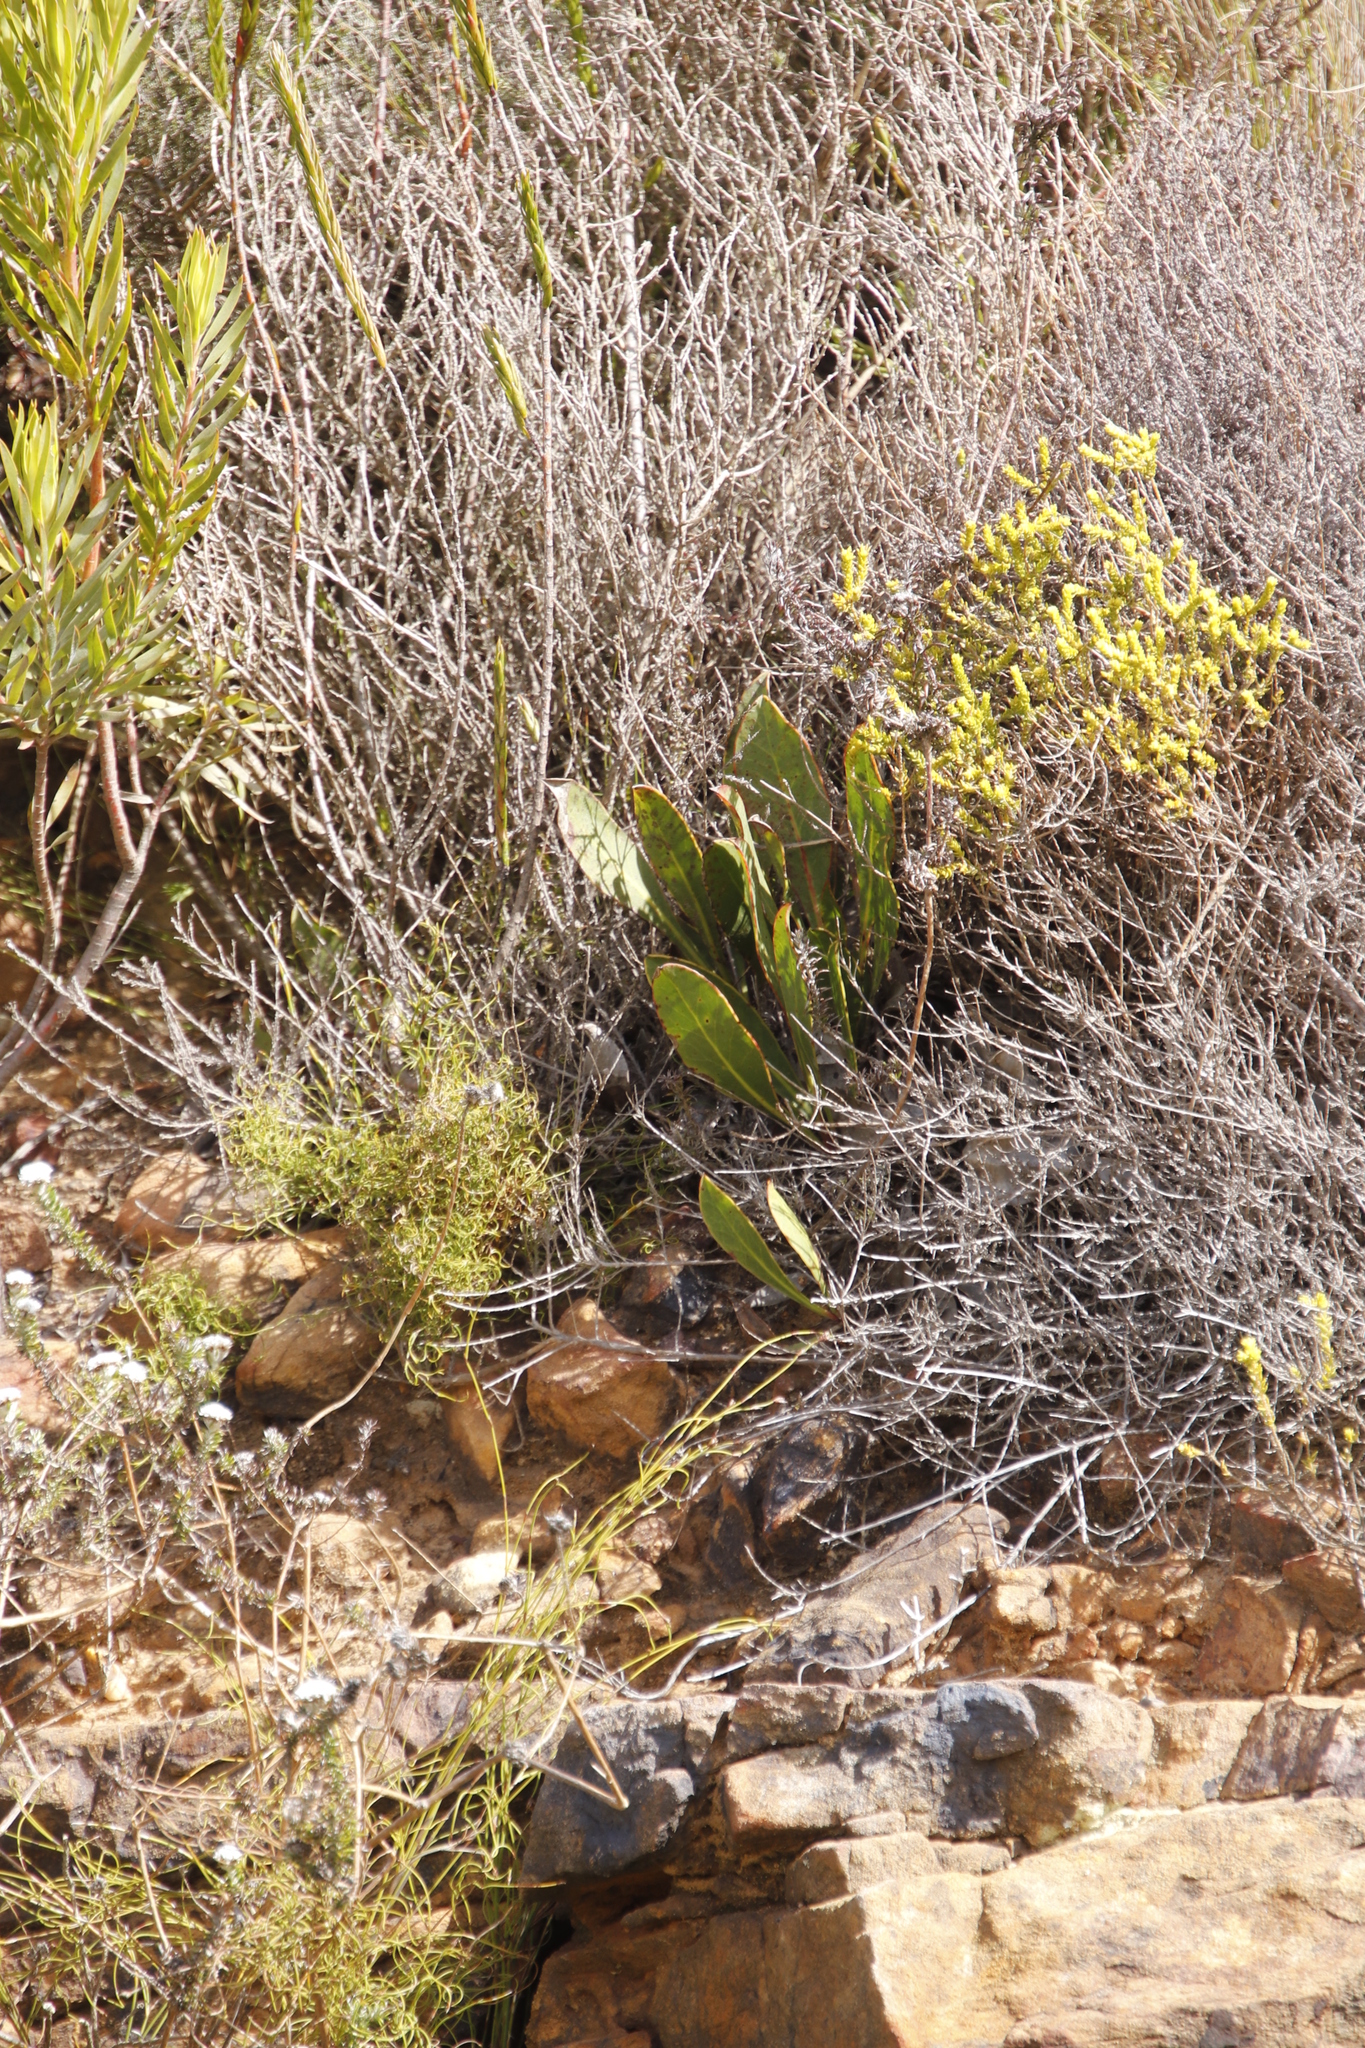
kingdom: Plantae
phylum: Tracheophyta
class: Magnoliopsida
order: Proteales
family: Proteaceae
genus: Protea
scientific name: Protea acaulos
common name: Common ground sugarbush
